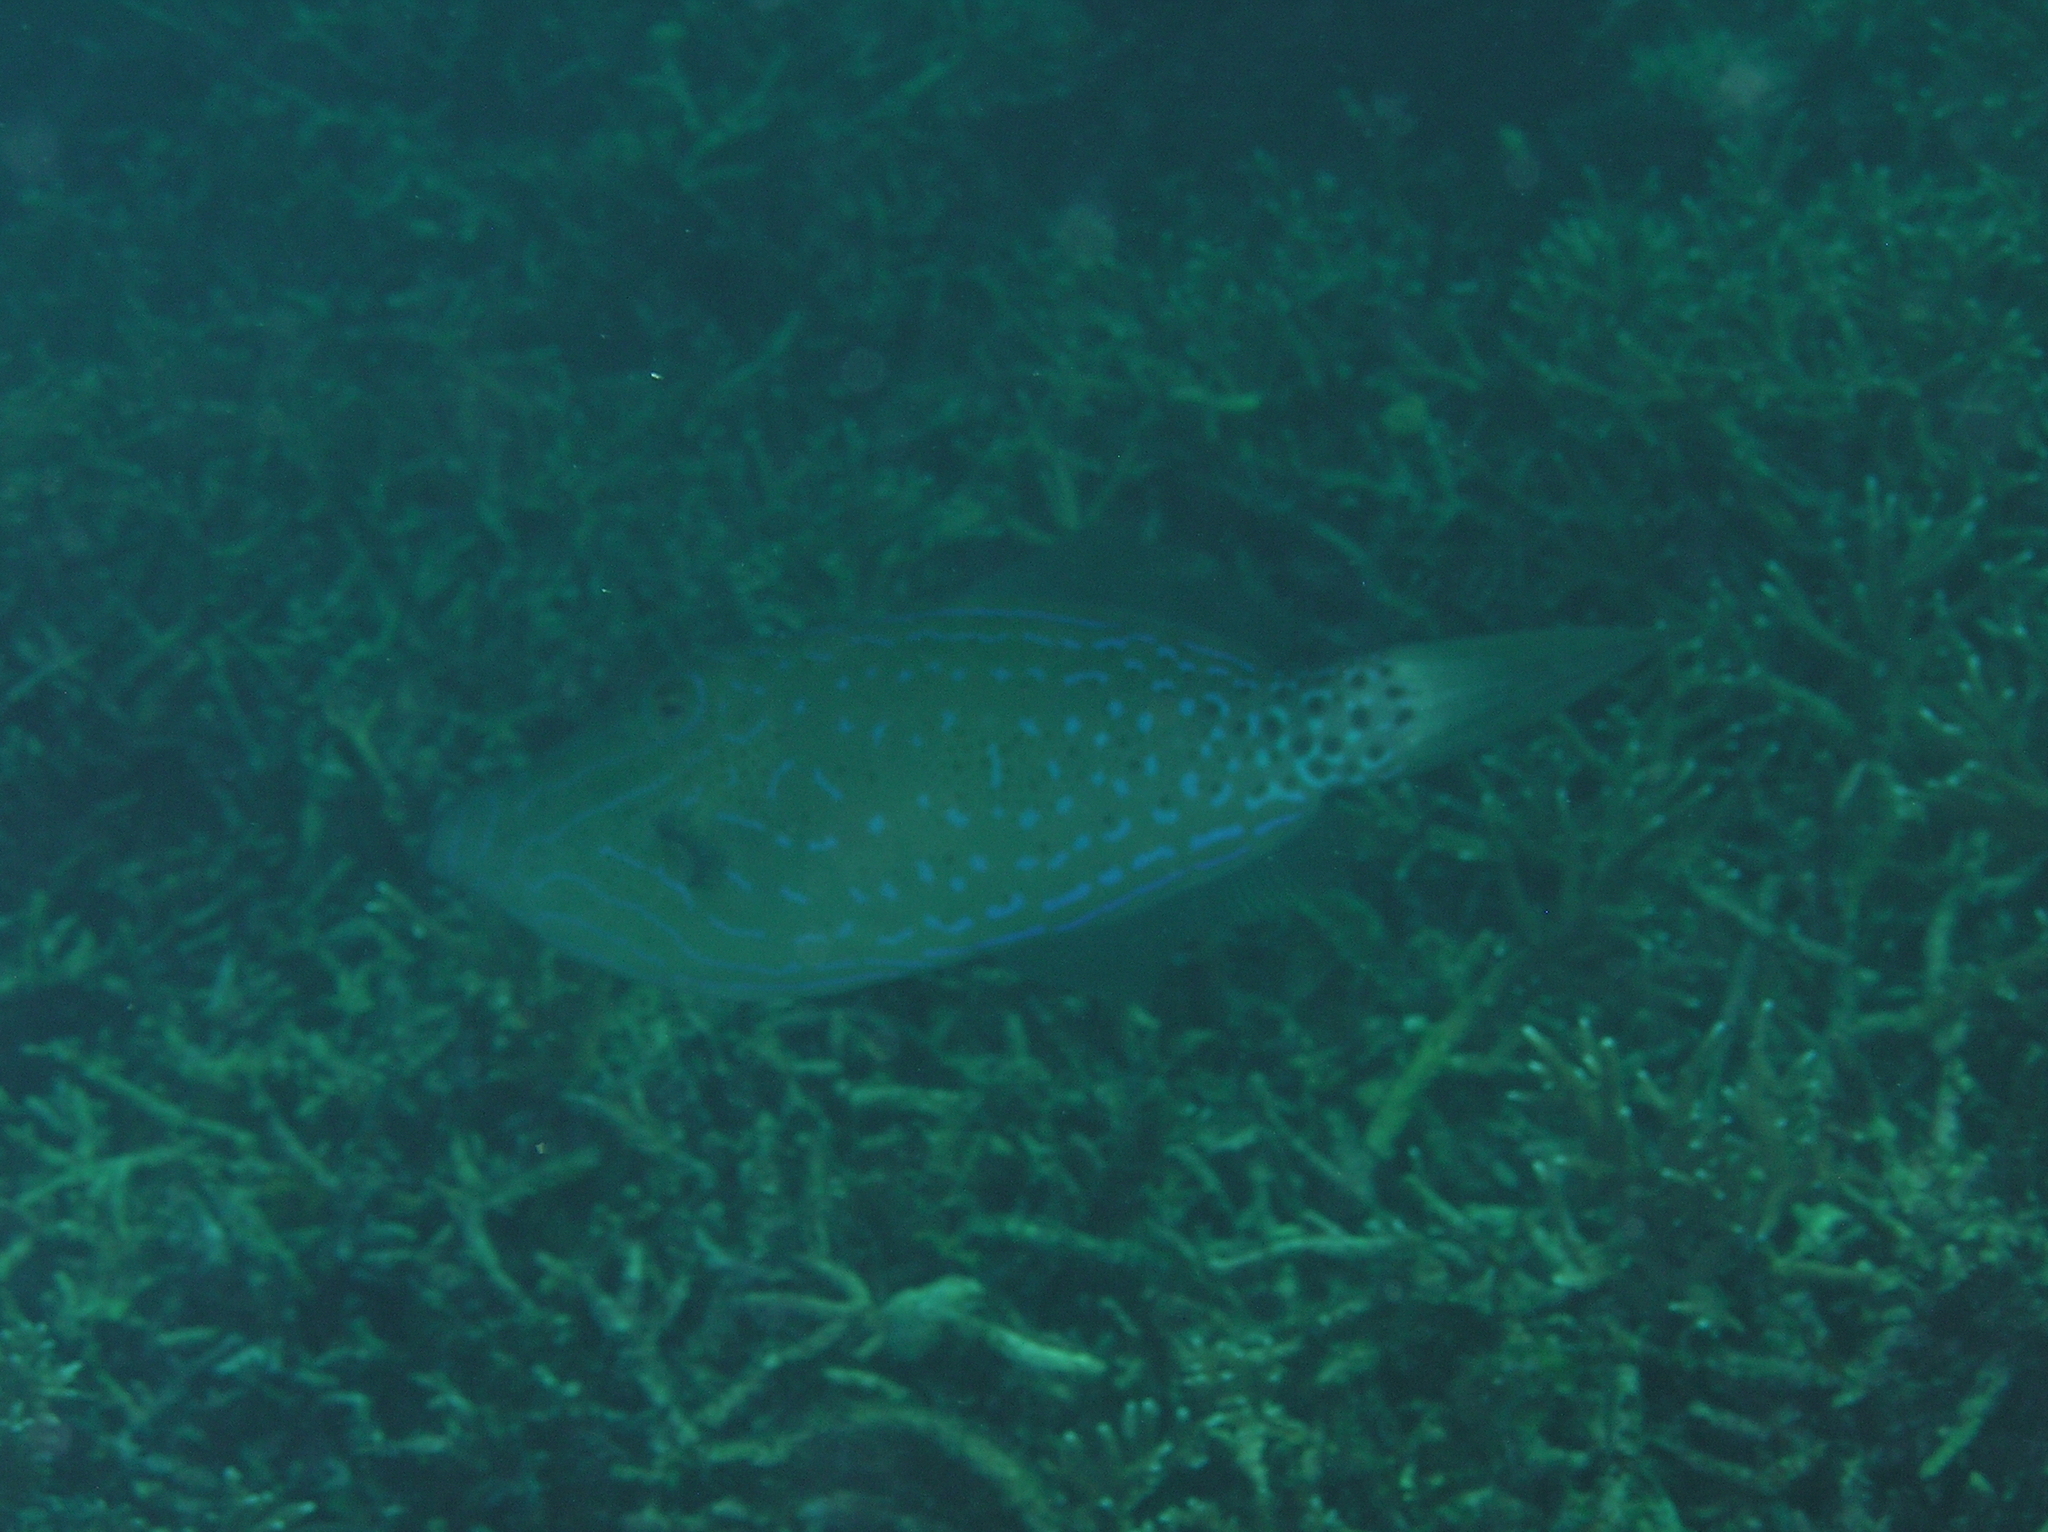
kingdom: Animalia
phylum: Chordata
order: Tetraodontiformes
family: Monacanthidae
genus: Aluterus
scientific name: Aluterus scriptus
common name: Scribbled leatherjacket filefish
